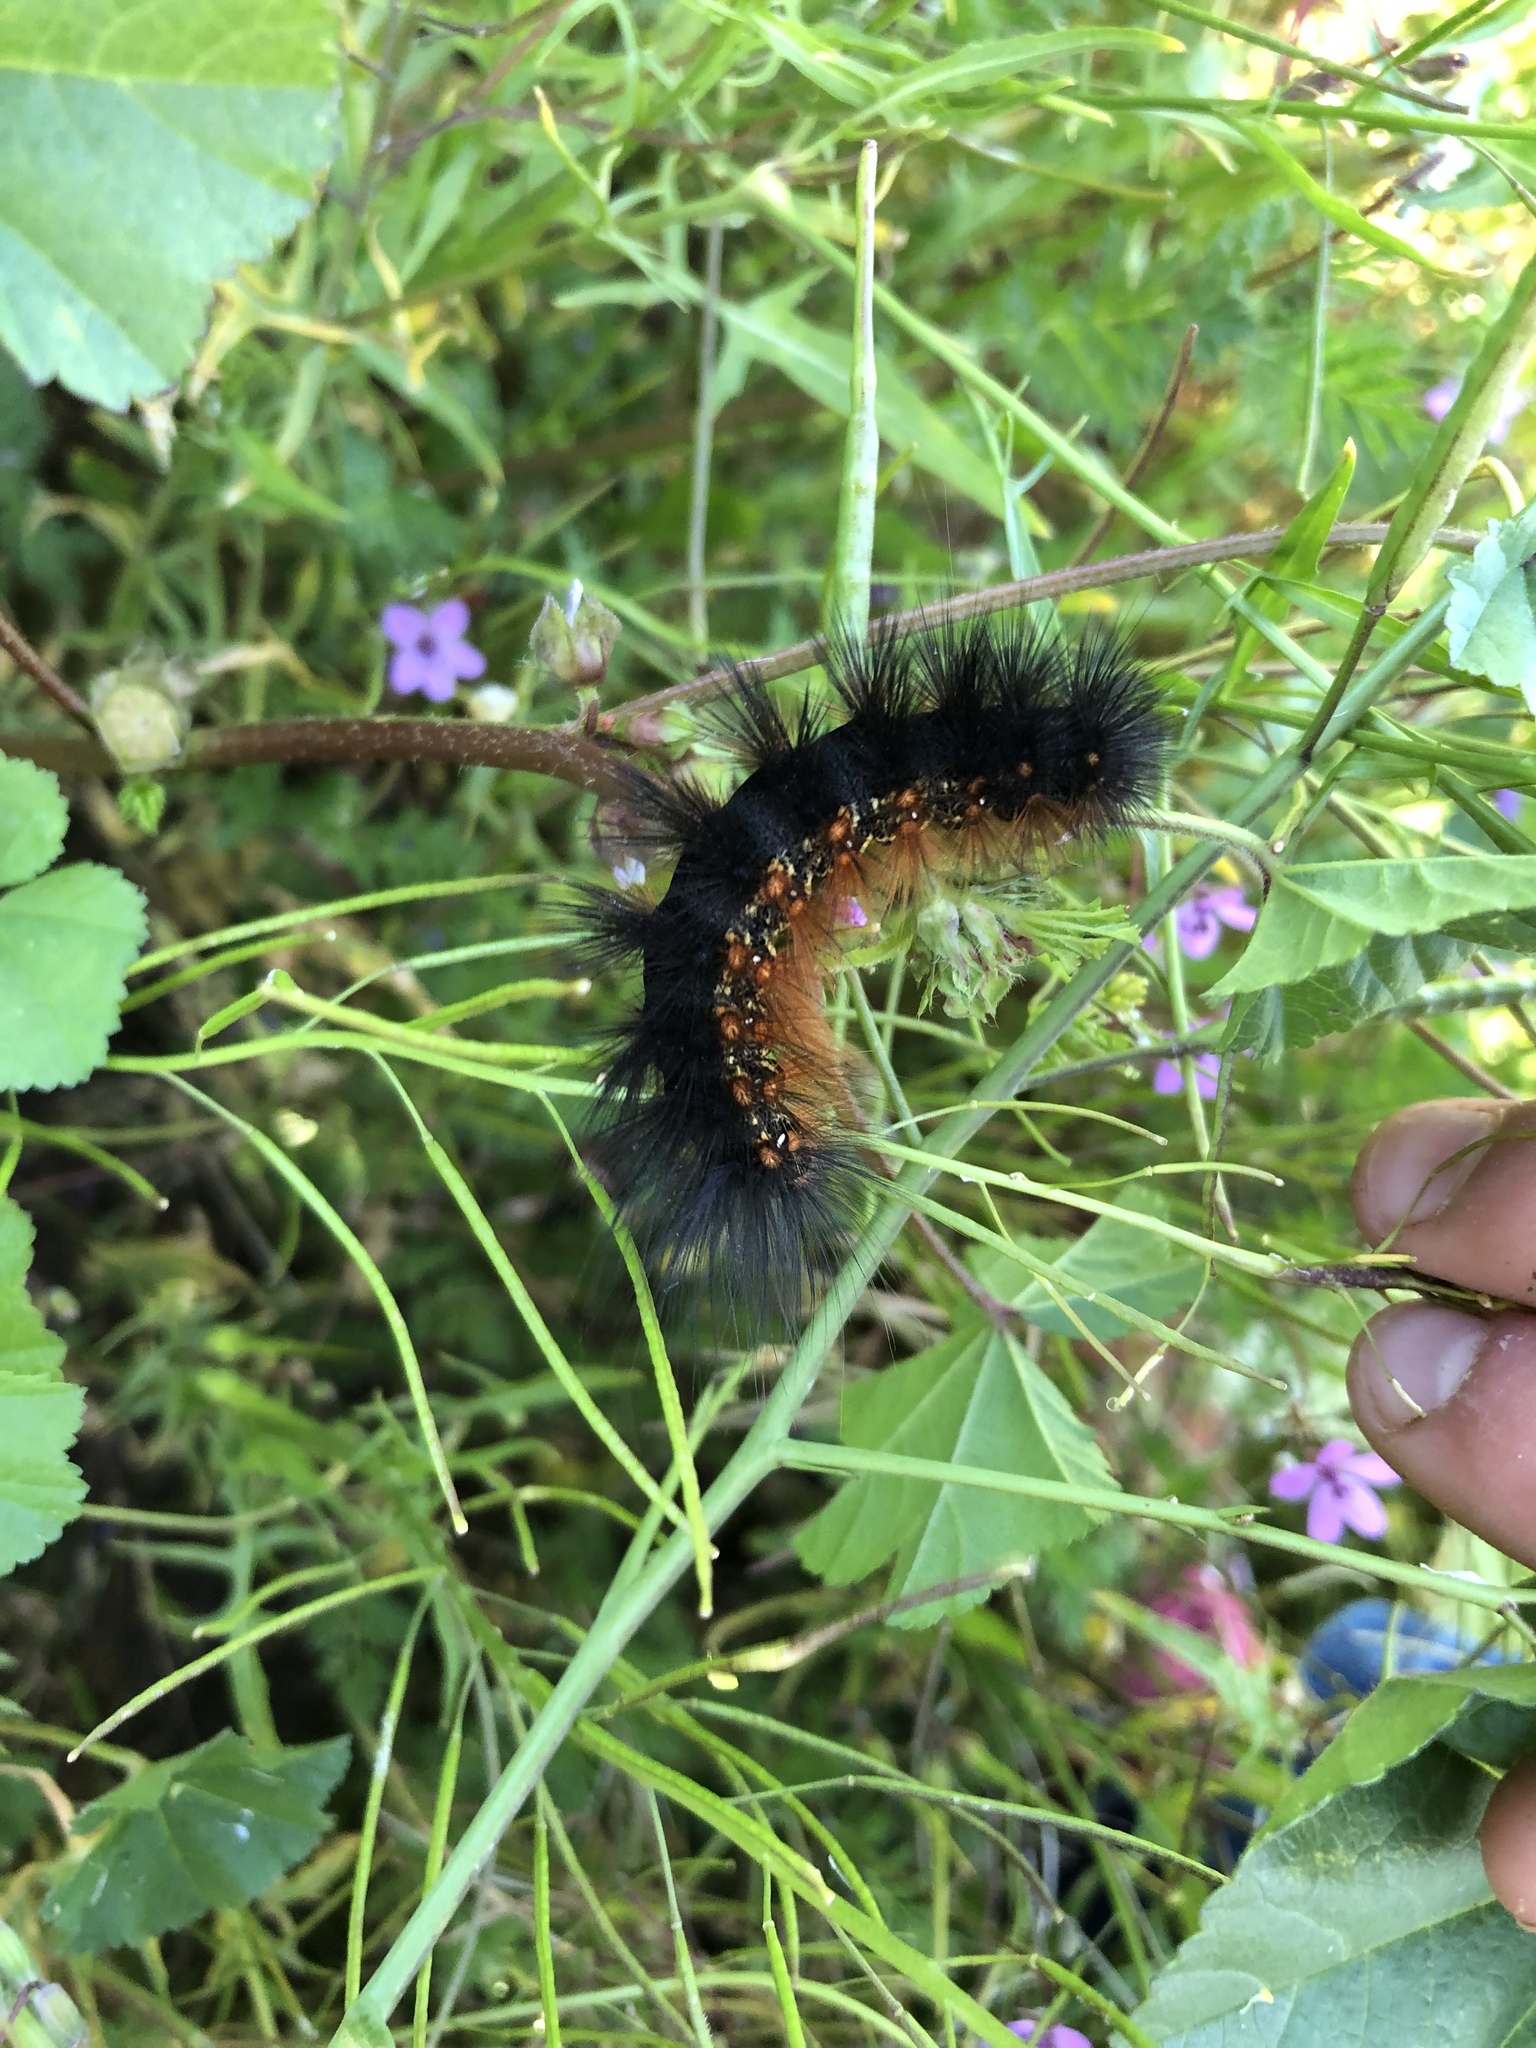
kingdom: Animalia
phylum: Arthropoda
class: Insecta
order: Lepidoptera
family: Erebidae
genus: Estigmene
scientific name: Estigmene acrea
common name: Salt marsh moth
